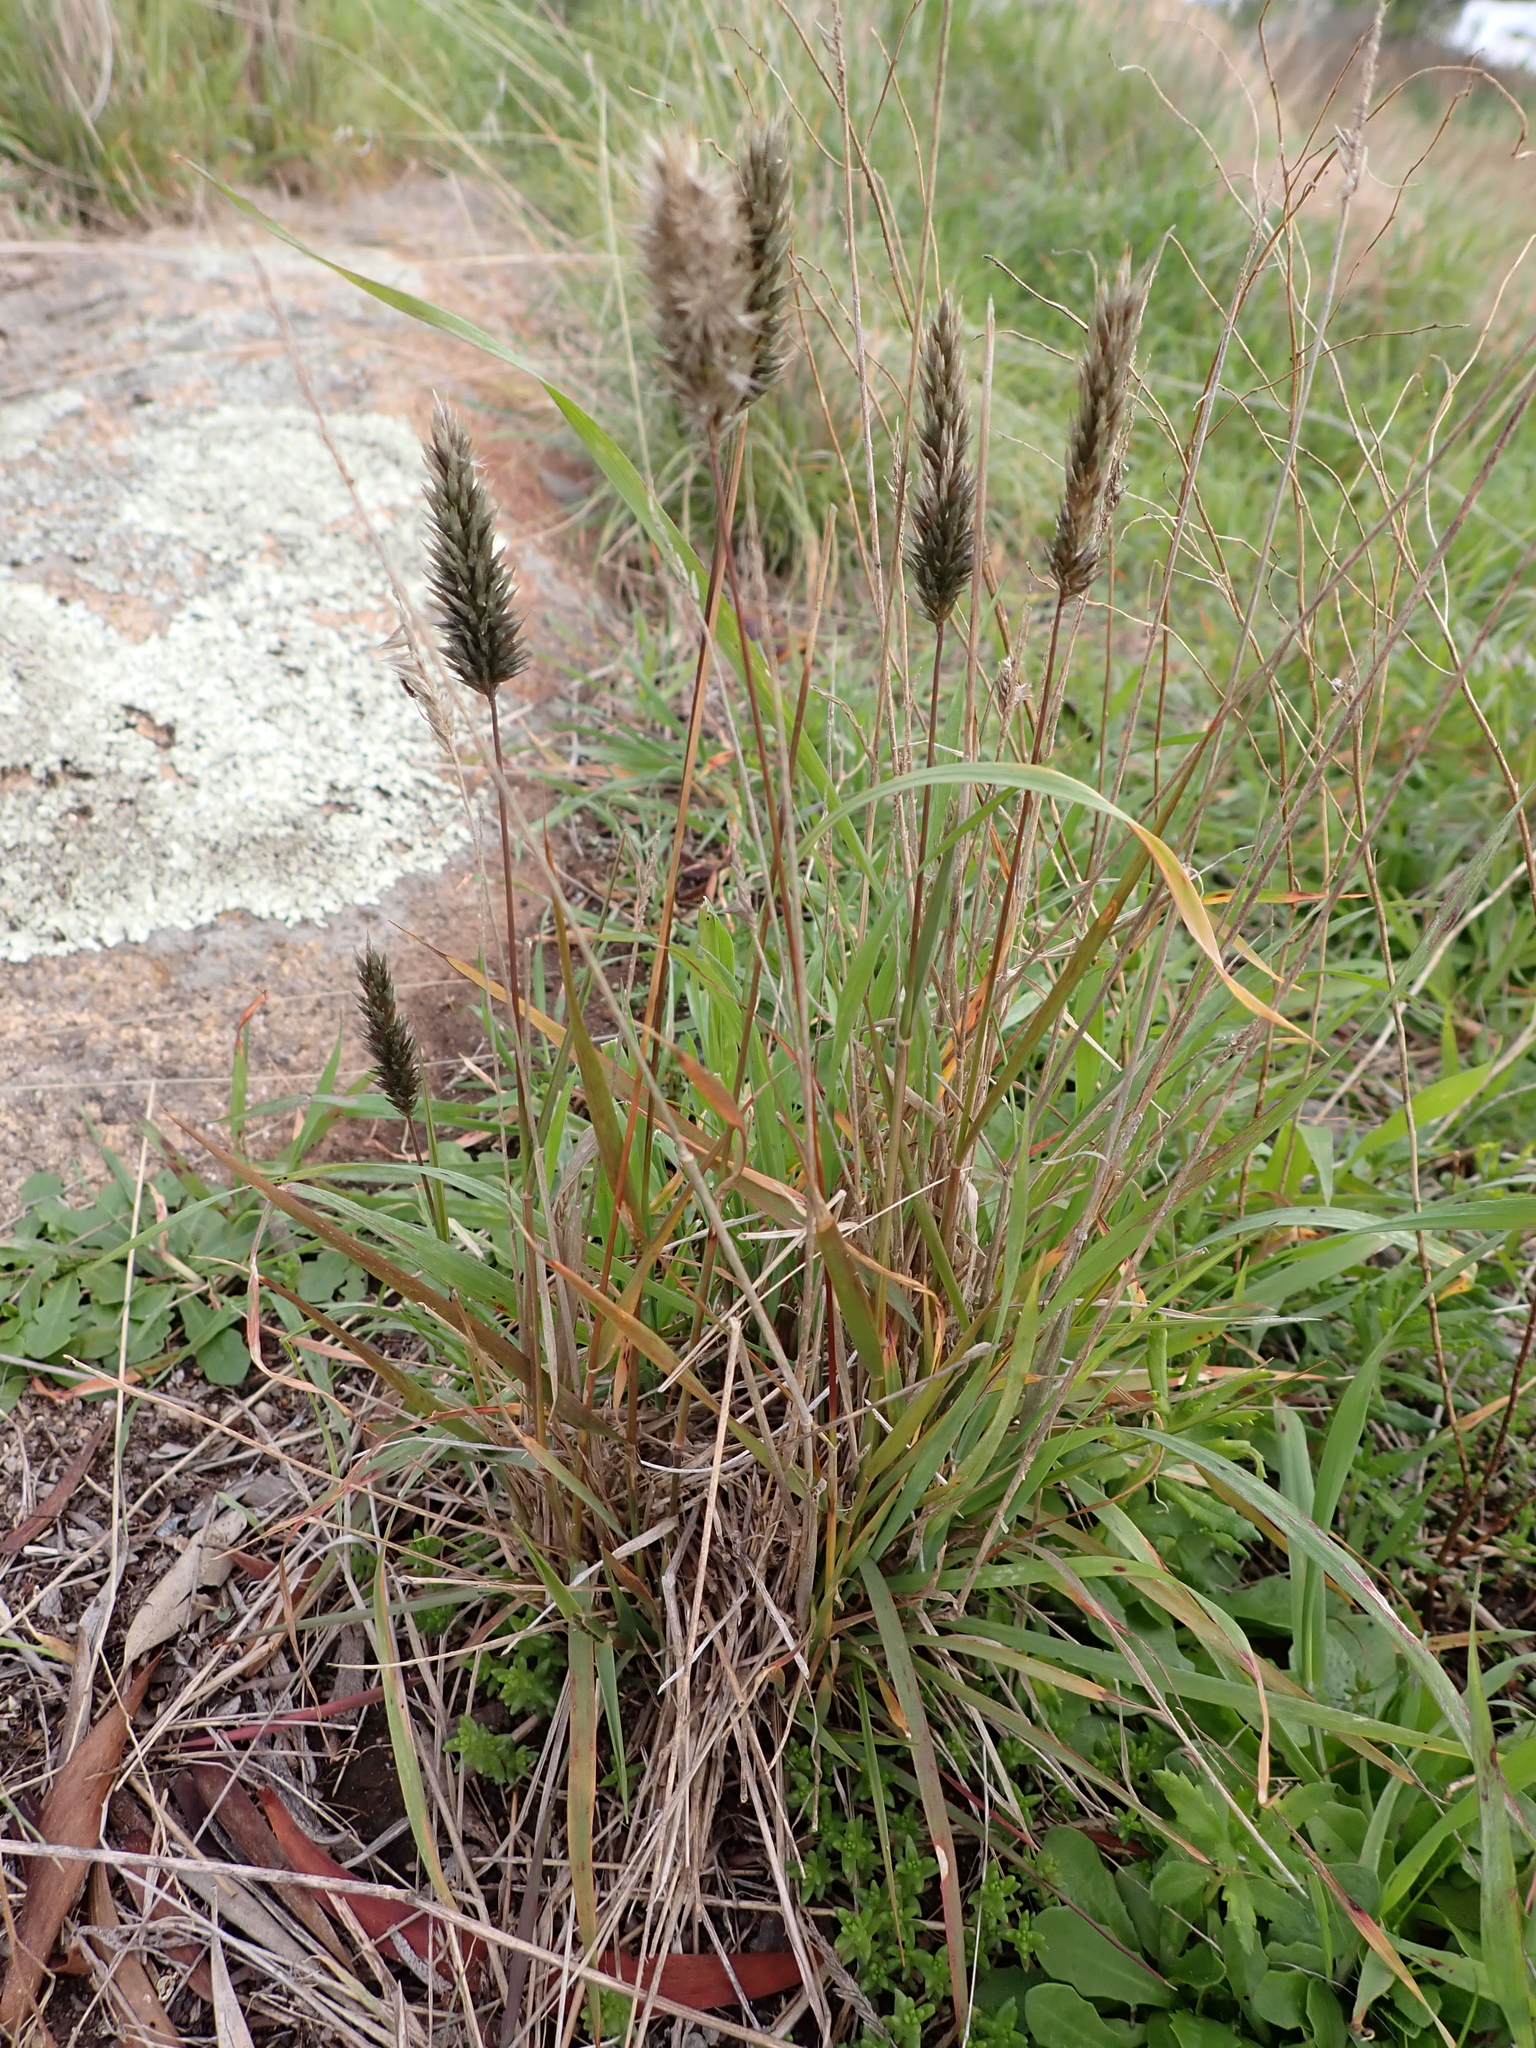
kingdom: Plantae
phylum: Tracheophyta
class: Liliopsida
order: Poales
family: Poaceae
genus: Enneapogon
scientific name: Enneapogon nigricans
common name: Pappus grass
